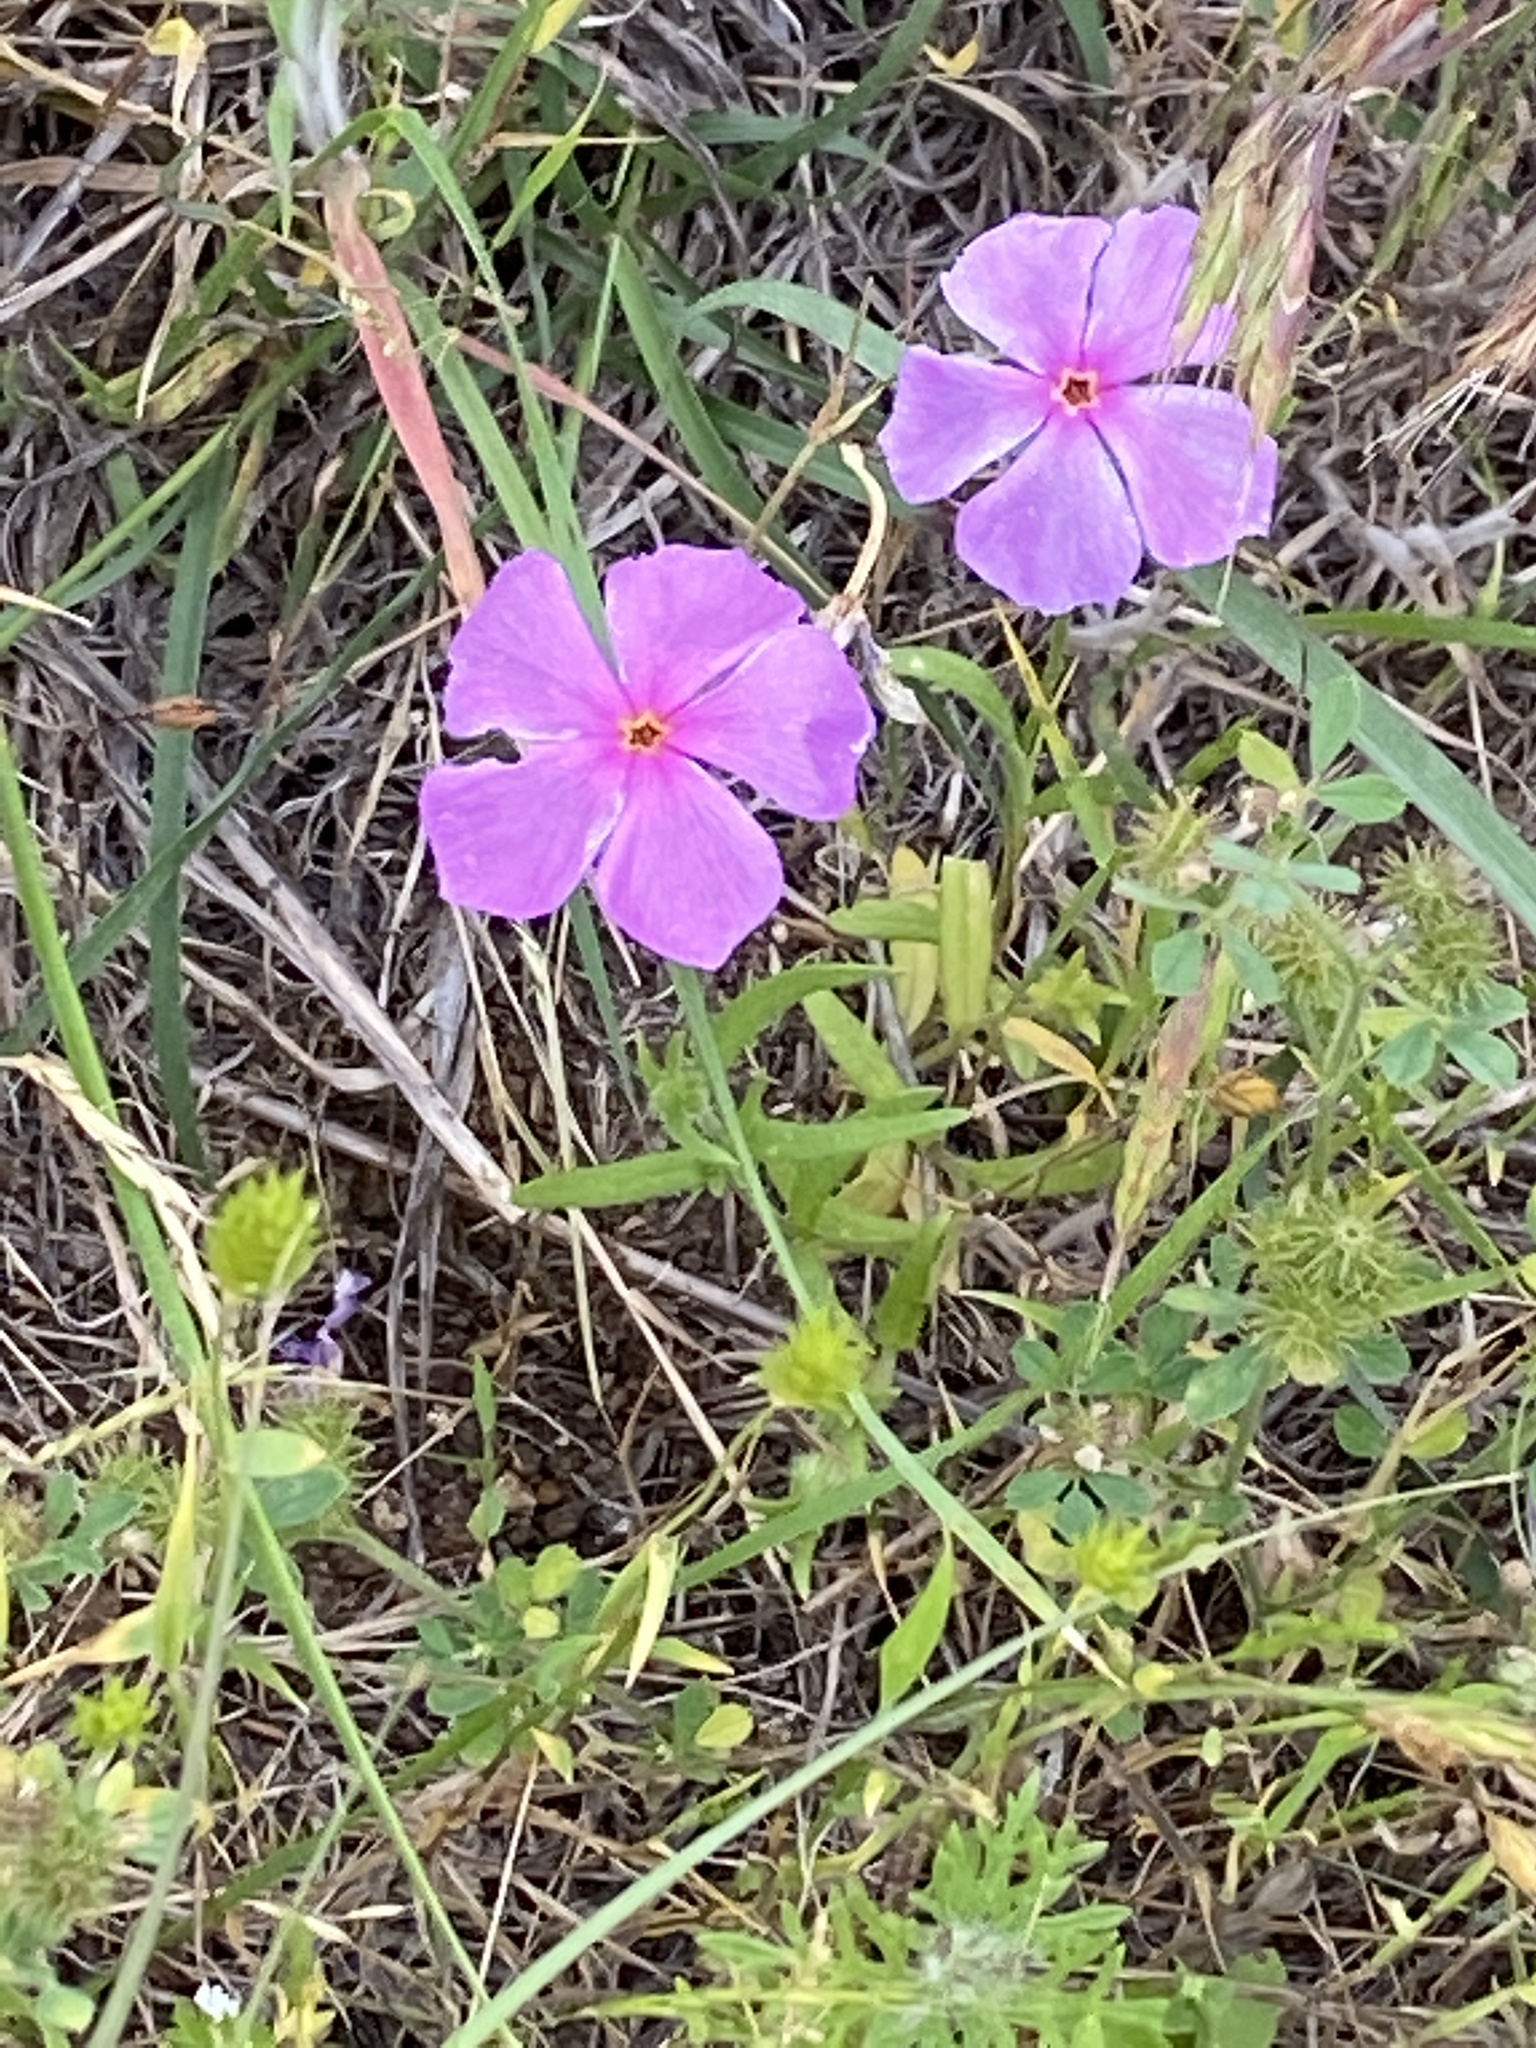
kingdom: Plantae
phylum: Tracheophyta
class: Magnoliopsida
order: Ericales
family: Polemoniaceae
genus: Phlox
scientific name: Phlox roemeriana
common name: Roemer's phlox
